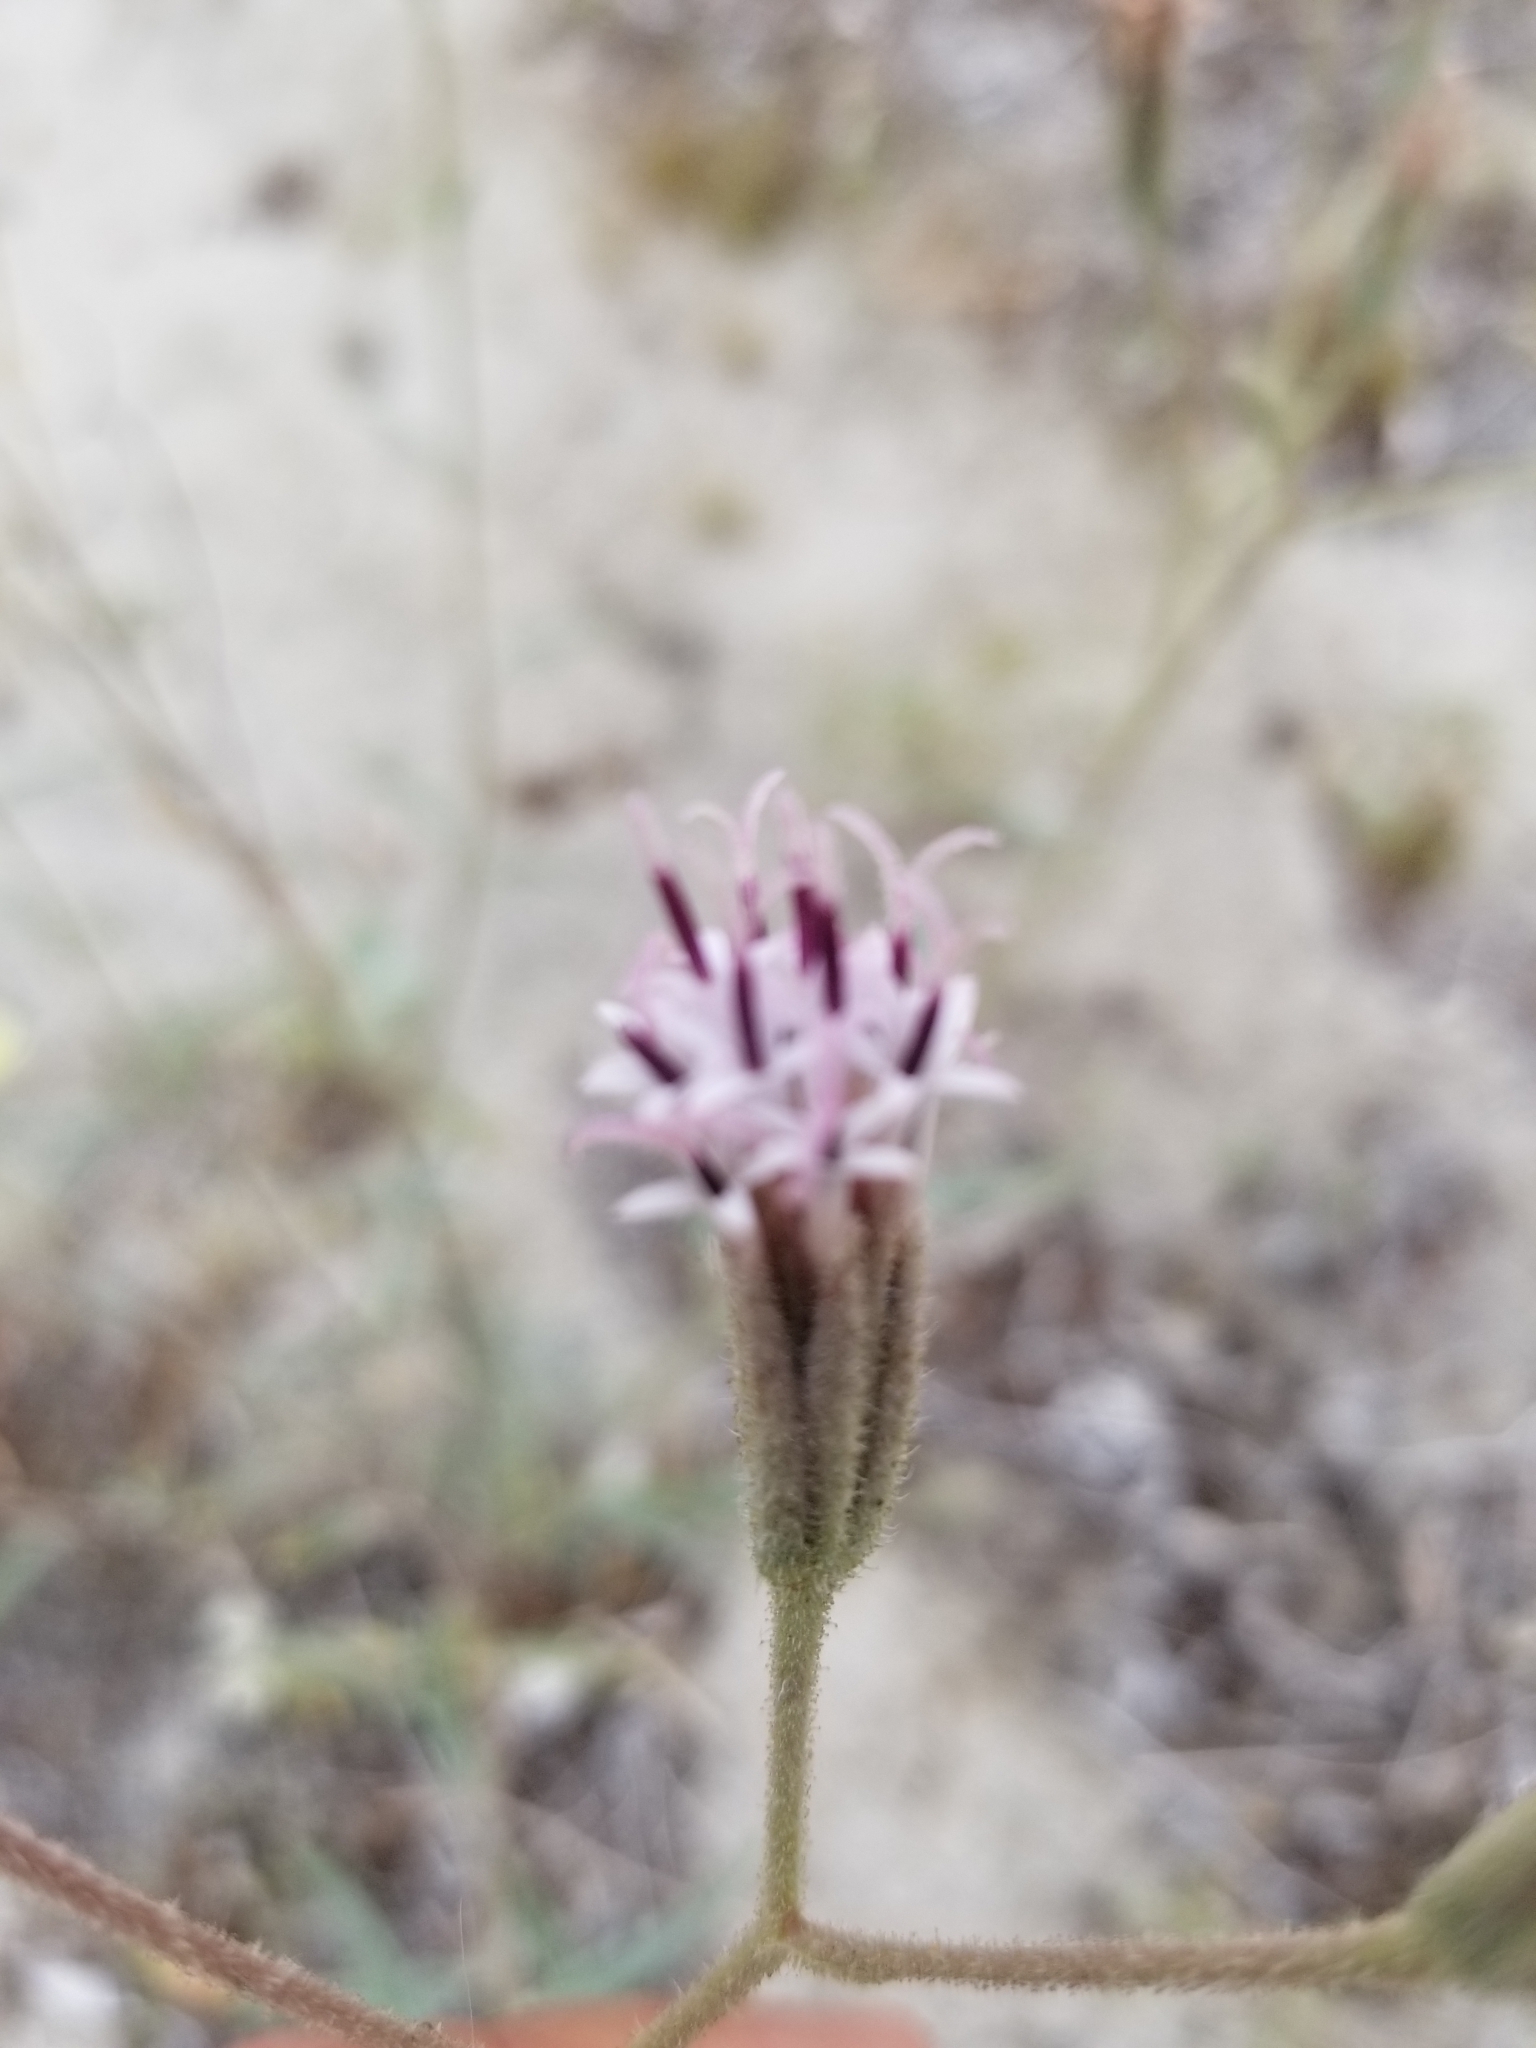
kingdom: Plantae
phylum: Tracheophyta
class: Magnoliopsida
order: Asterales
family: Asteraceae
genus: Palafoxia
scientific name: Palafoxia arida
